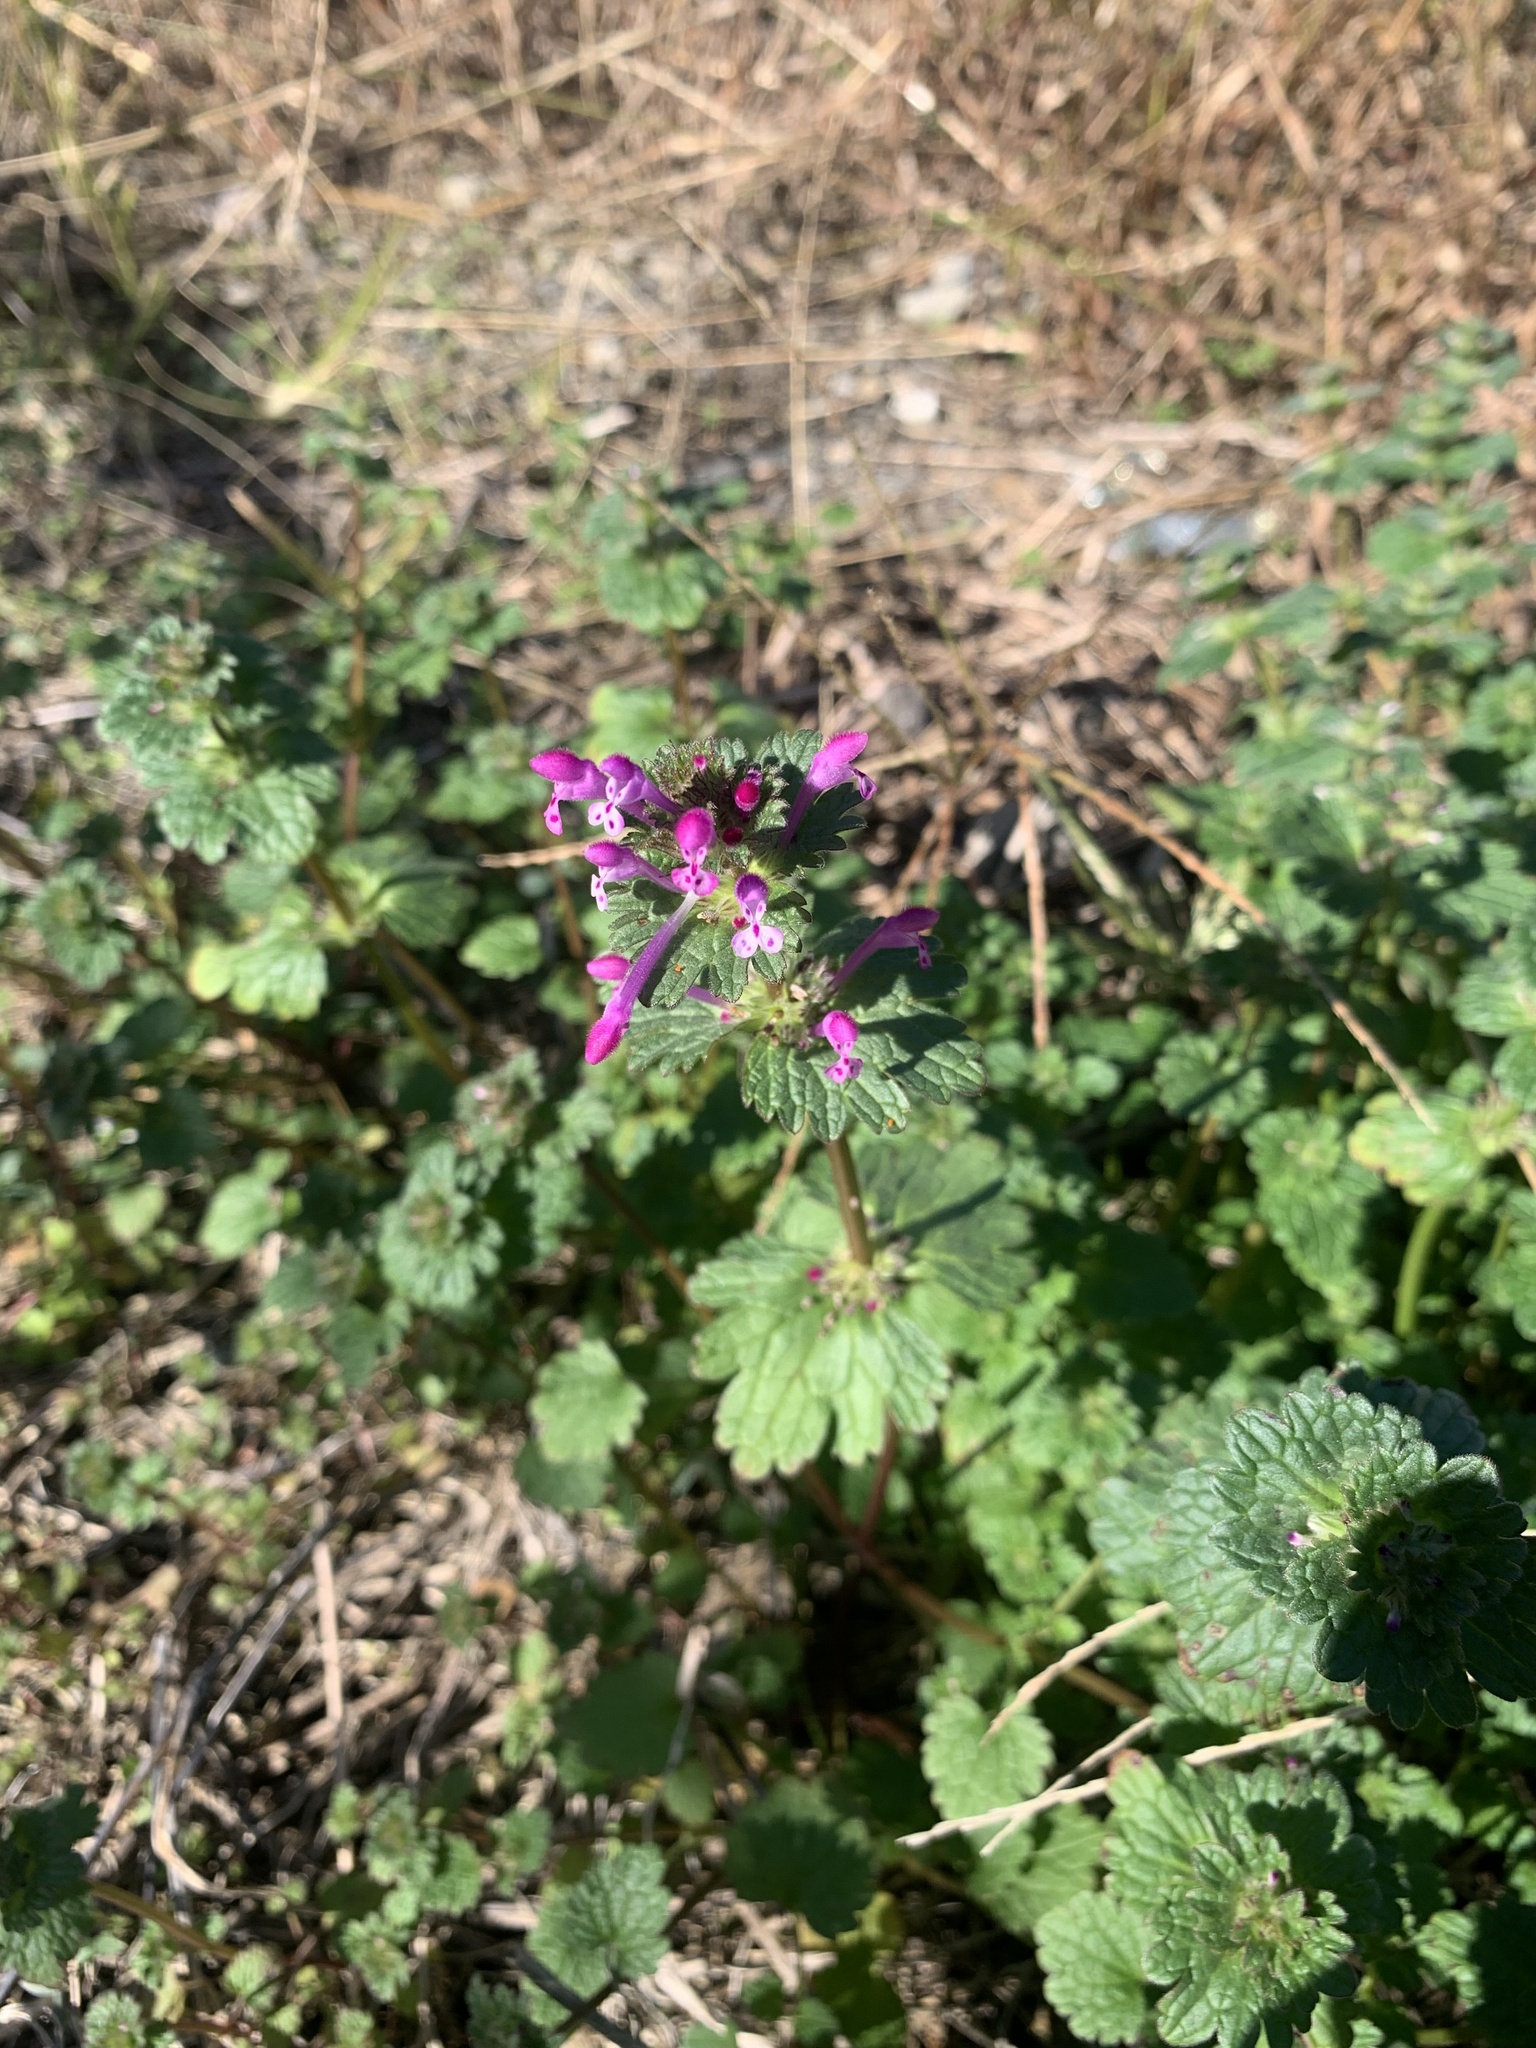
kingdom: Plantae
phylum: Tracheophyta
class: Magnoliopsida
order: Lamiales
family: Lamiaceae
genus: Lamium
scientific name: Lamium amplexicaule
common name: Henbit dead-nettle
